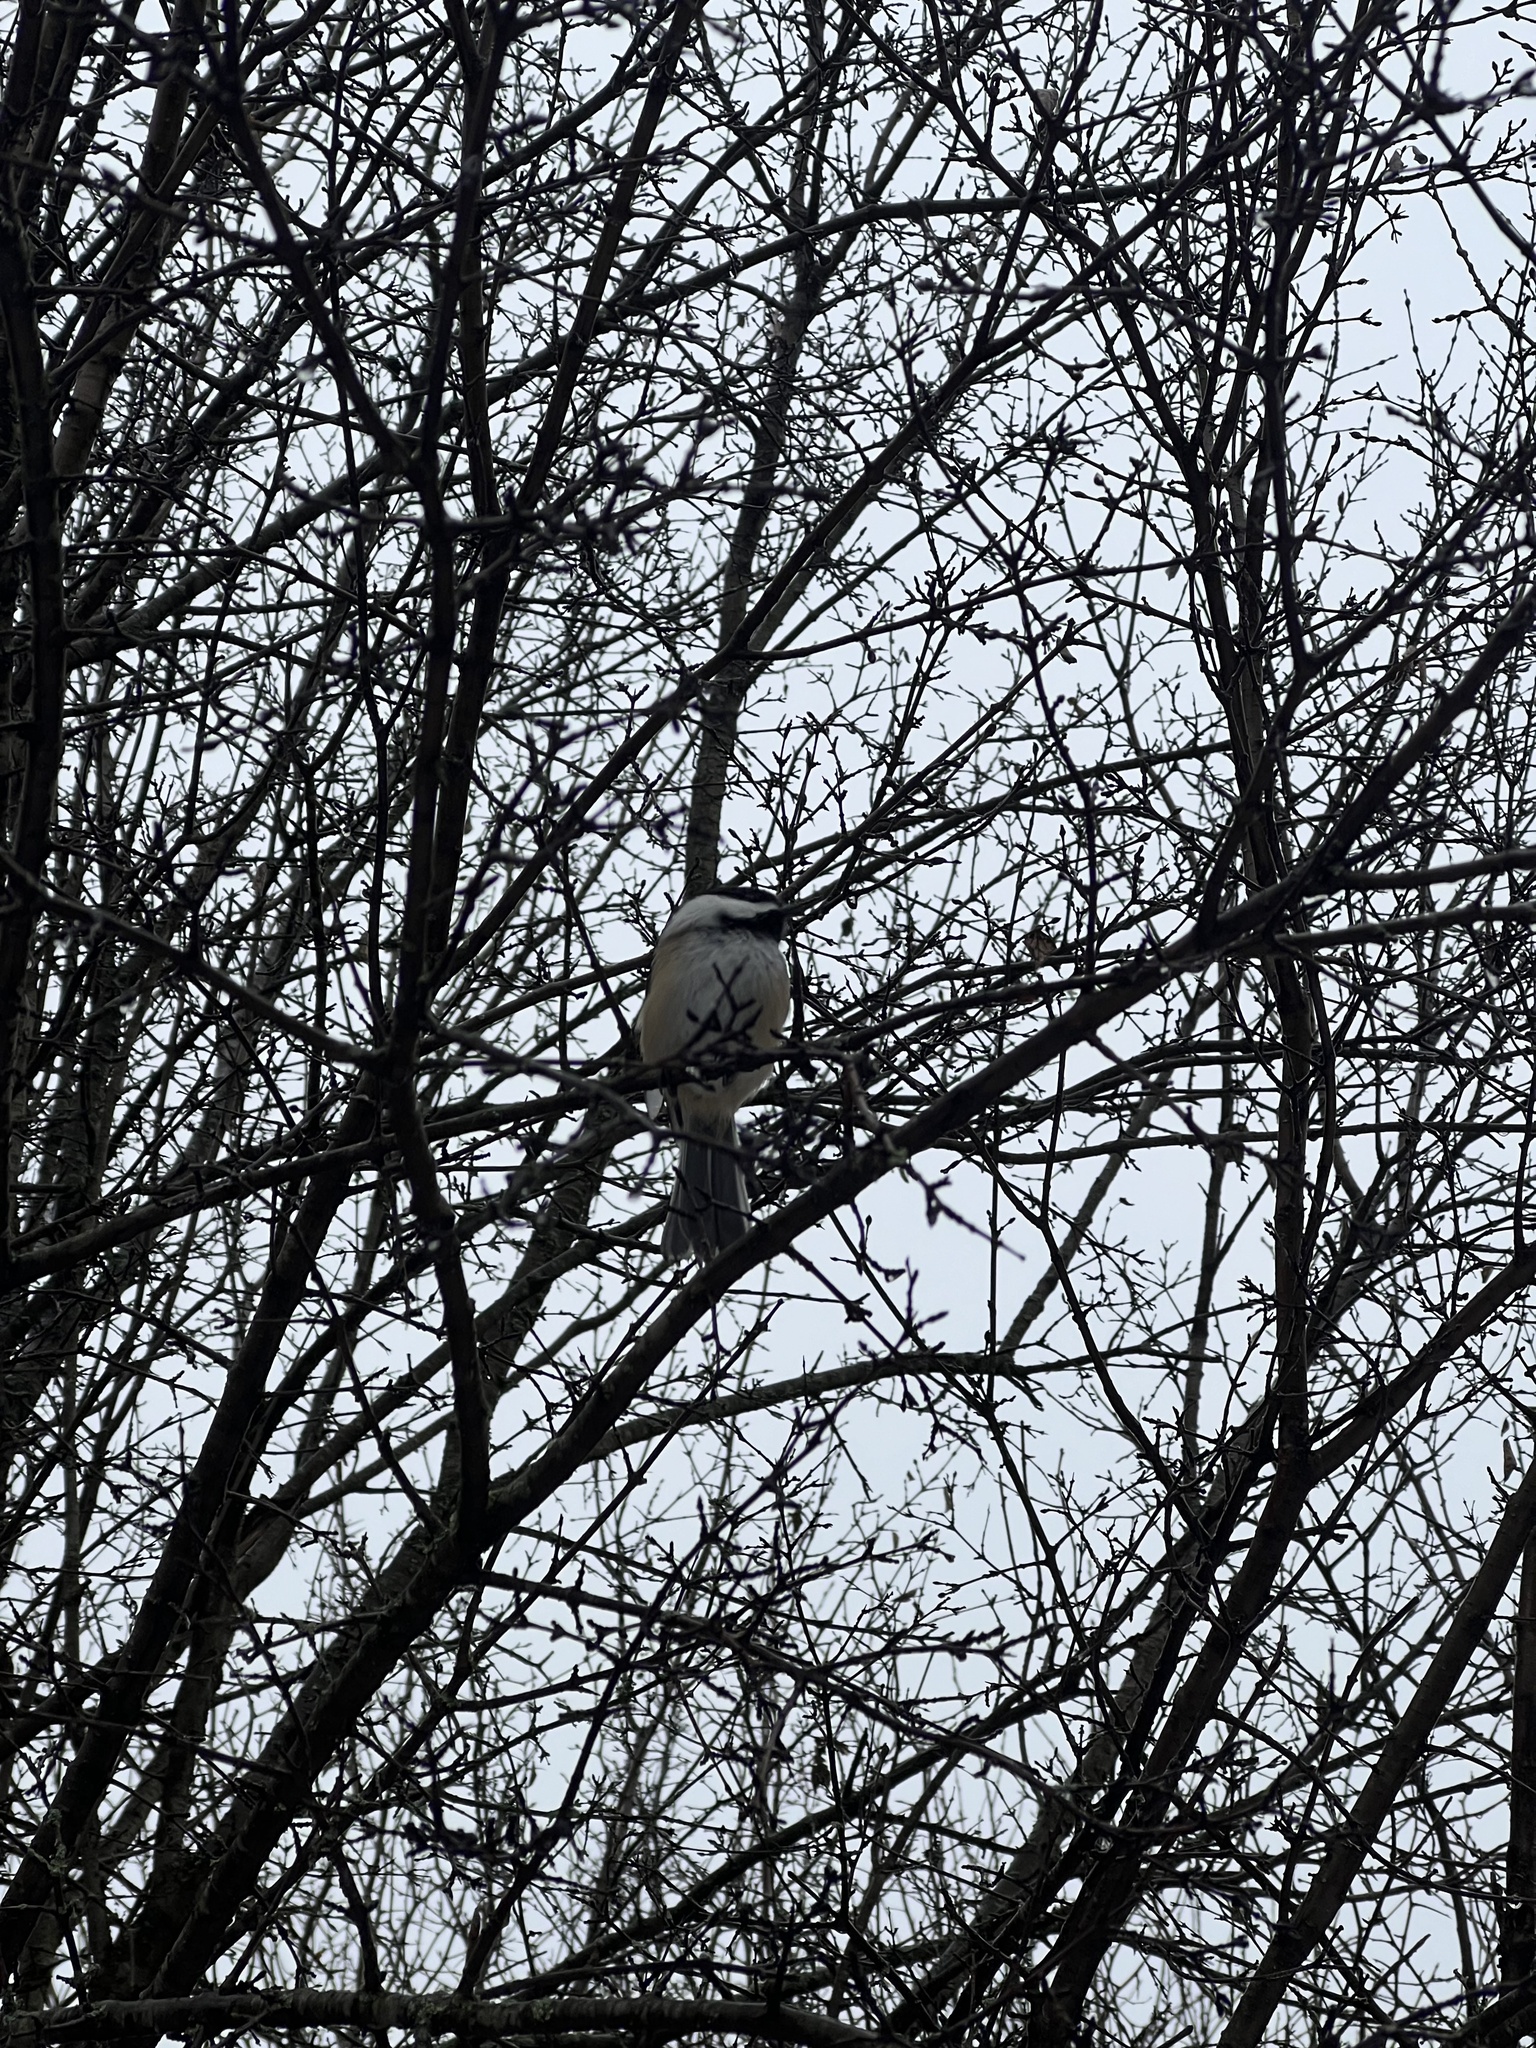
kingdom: Animalia
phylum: Chordata
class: Aves
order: Passeriformes
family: Paridae
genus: Poecile
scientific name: Poecile atricapillus
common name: Black-capped chickadee
